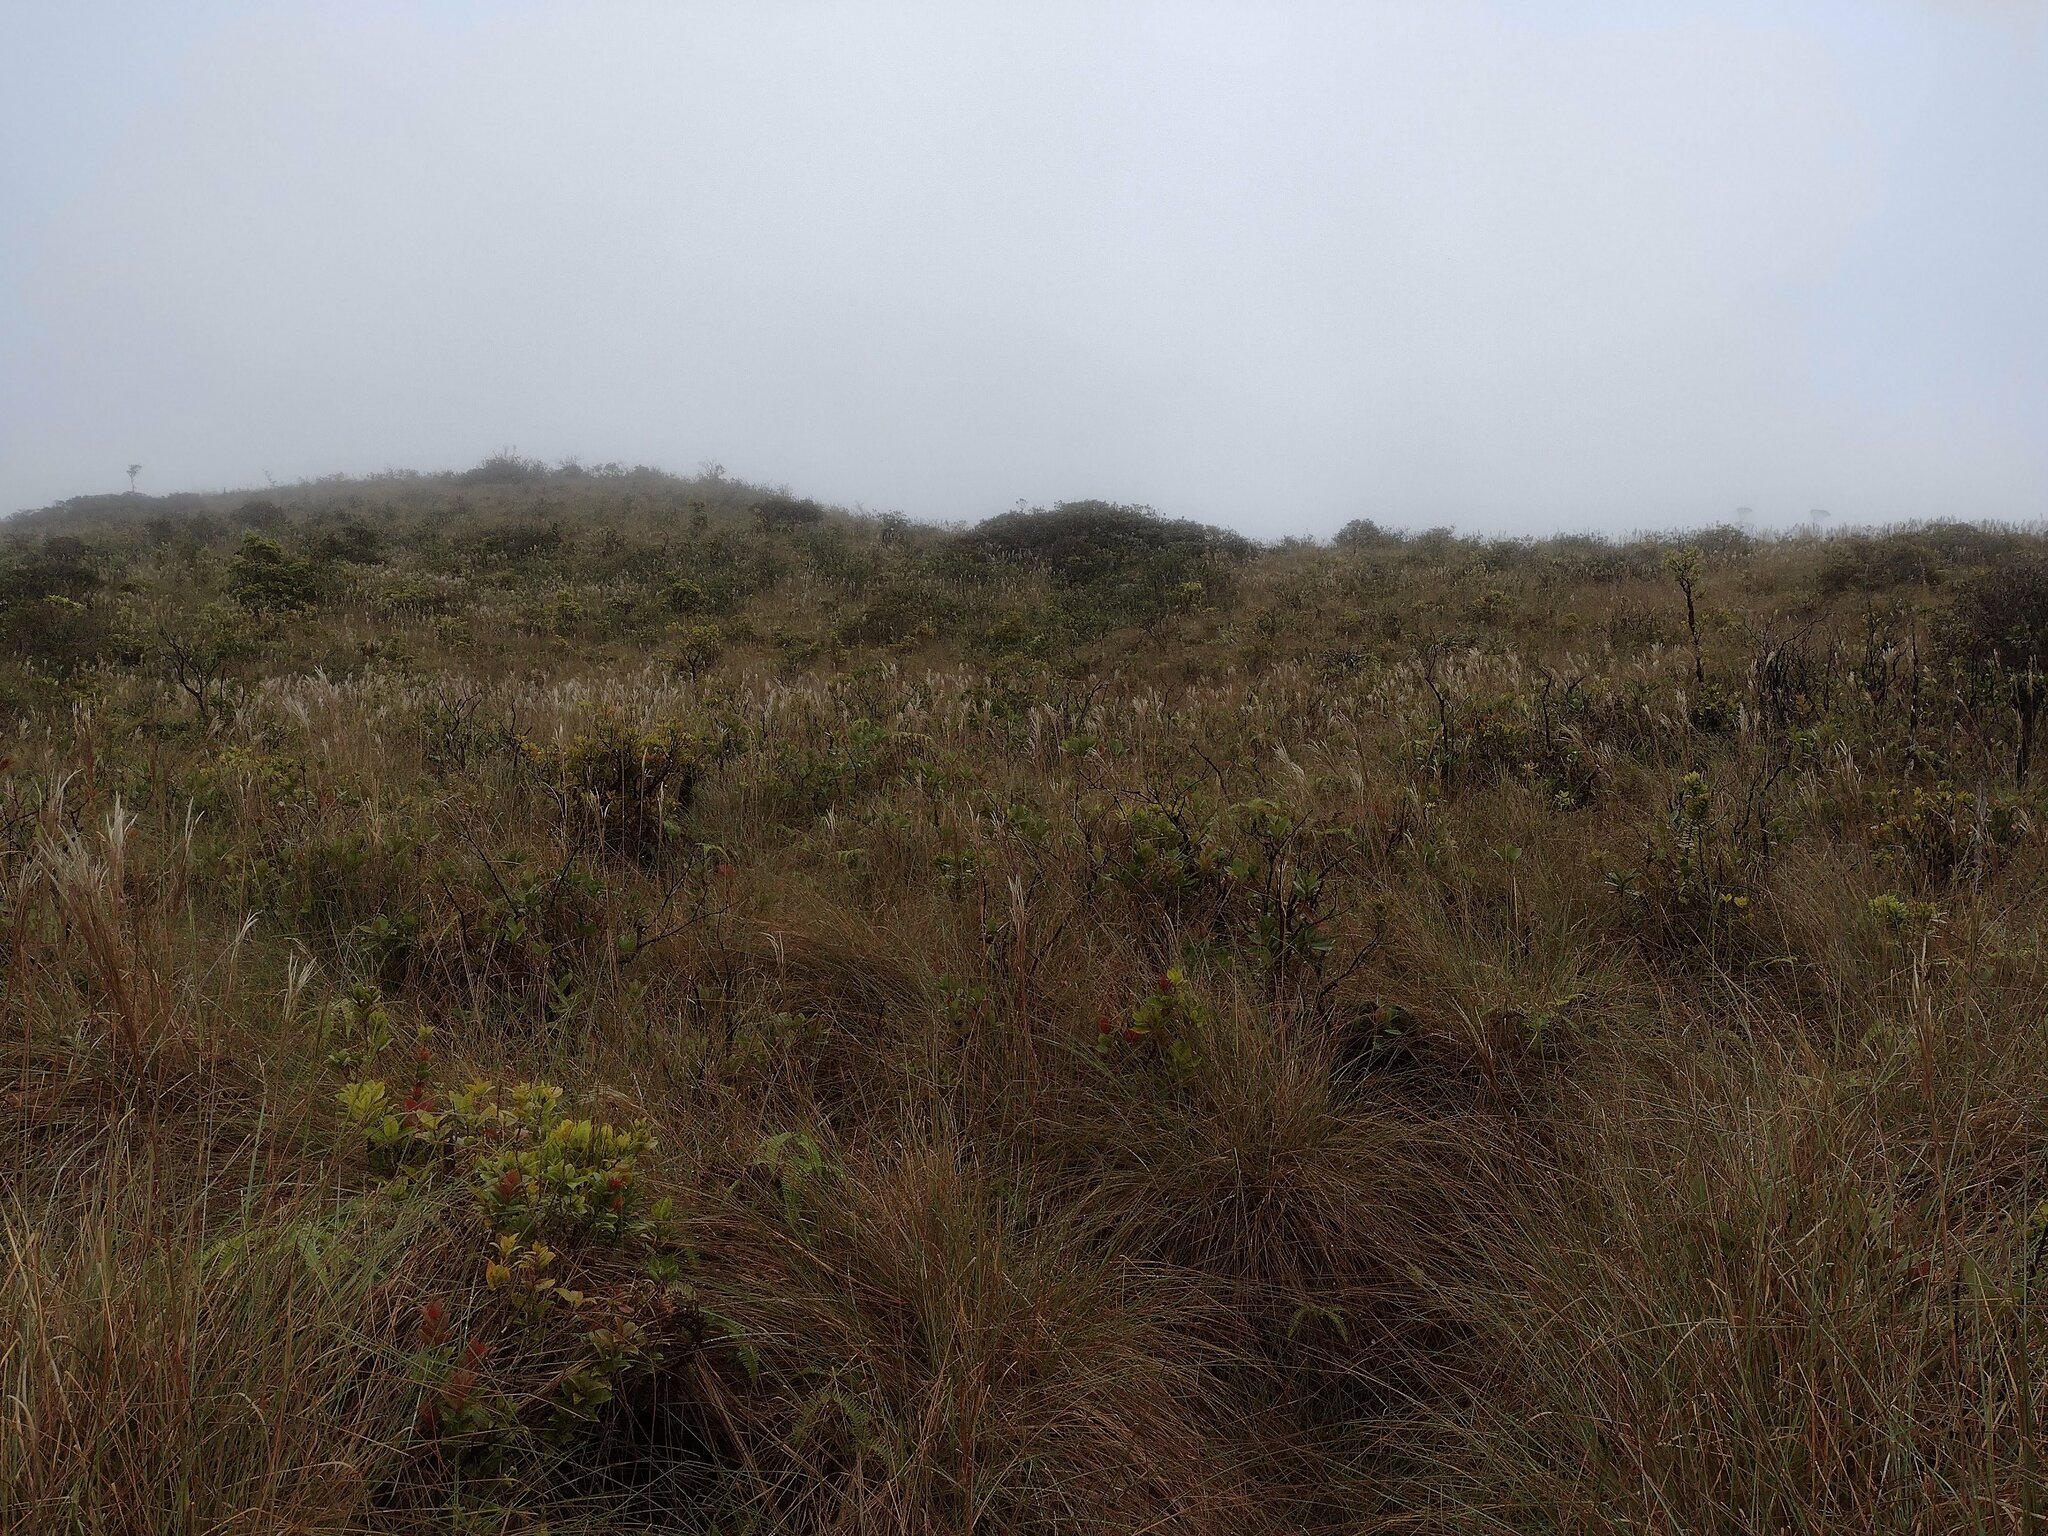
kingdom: Plantae
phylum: Tracheophyta
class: Liliopsida
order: Poales
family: Poaceae
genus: Andropogon
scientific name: Andropogon bicornis
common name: West indian foxtail grass
